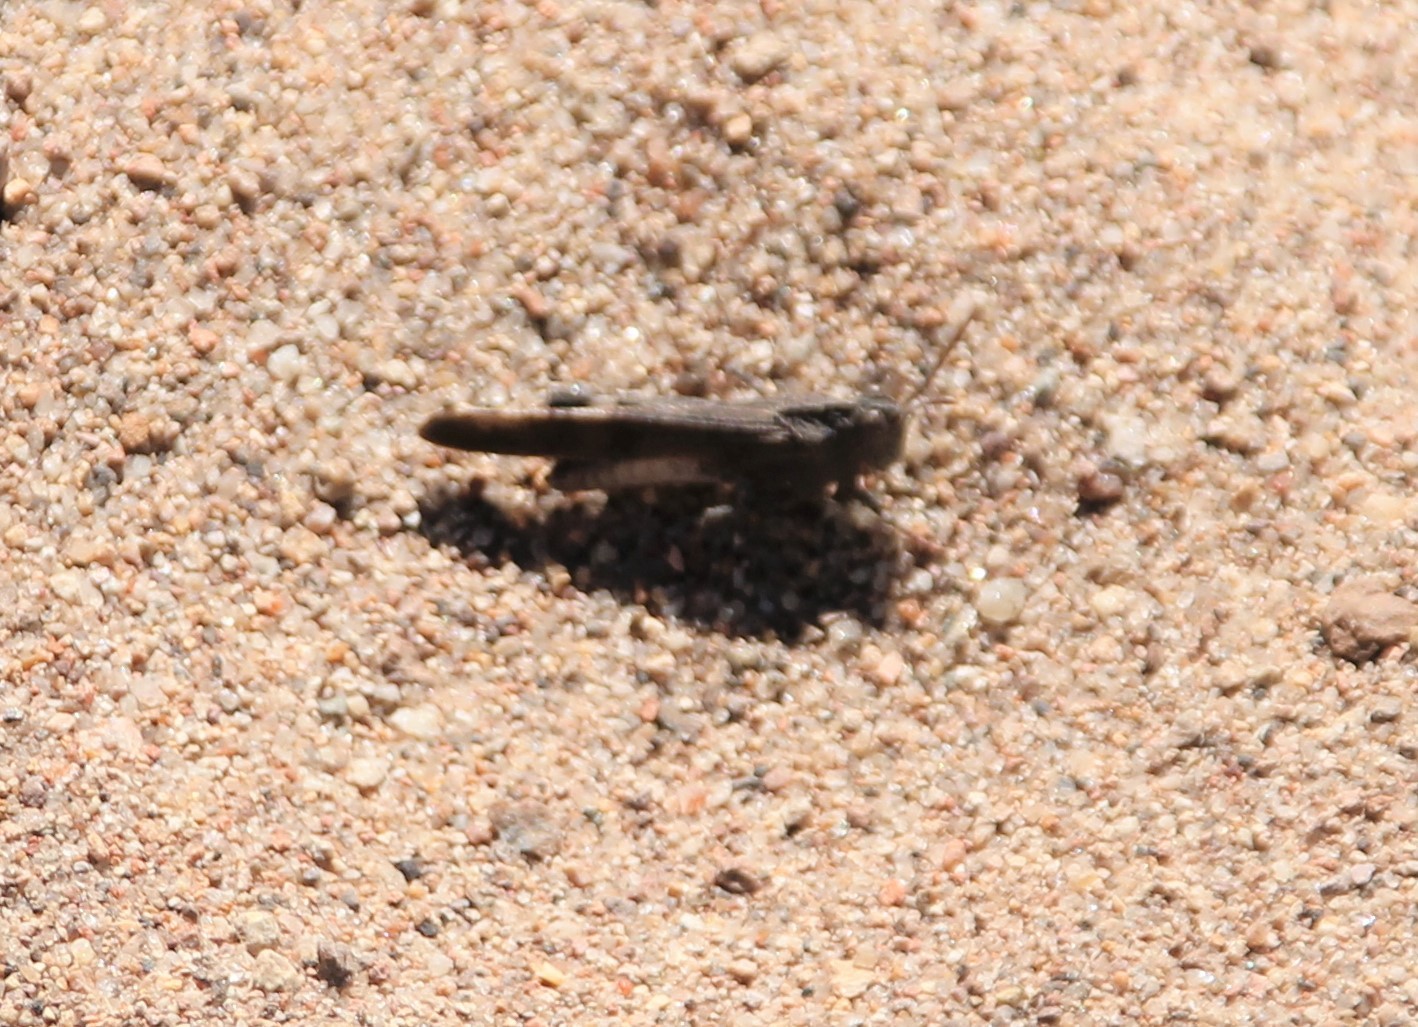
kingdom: Animalia
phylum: Arthropoda
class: Insecta
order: Orthoptera
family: Acrididae
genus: Lactista
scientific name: Lactista gibbosus
